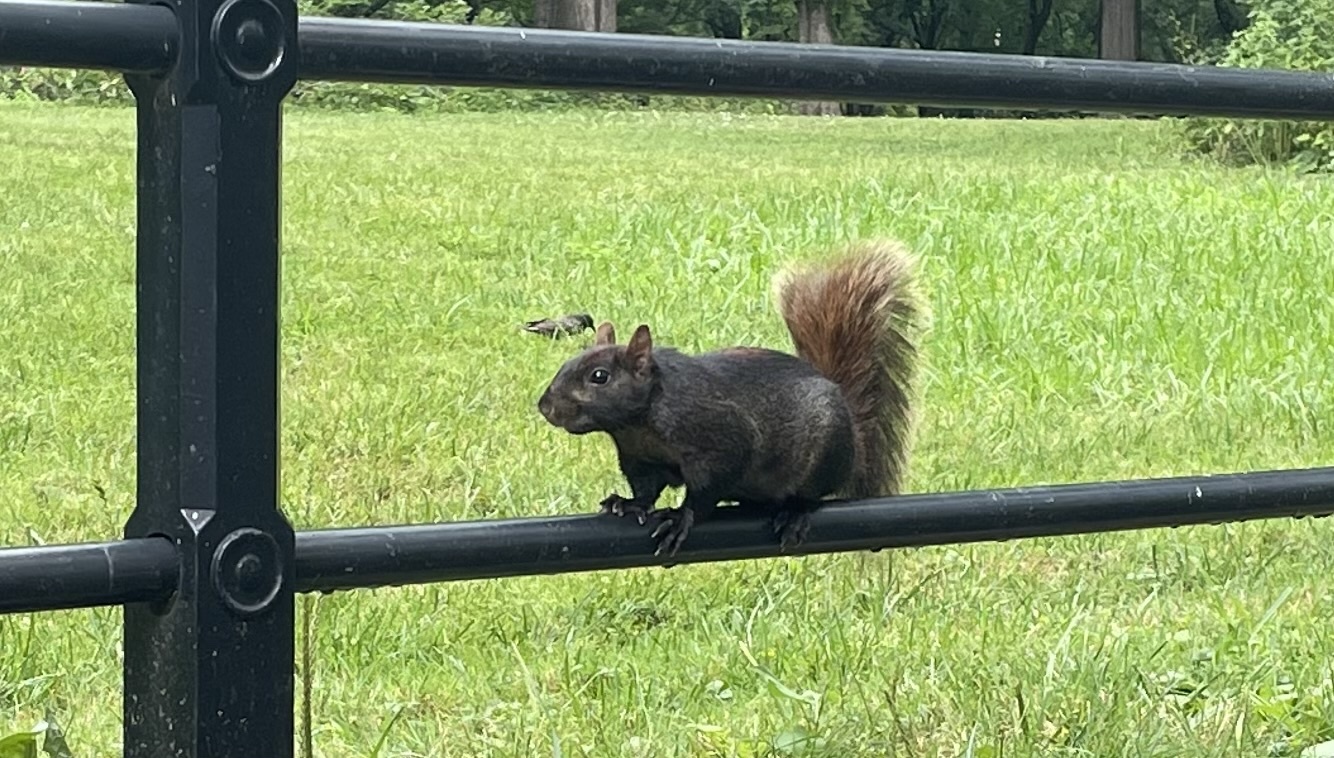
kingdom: Animalia
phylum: Chordata
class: Mammalia
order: Rodentia
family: Sciuridae
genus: Sciurus
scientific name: Sciurus carolinensis
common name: Eastern gray squirrel
